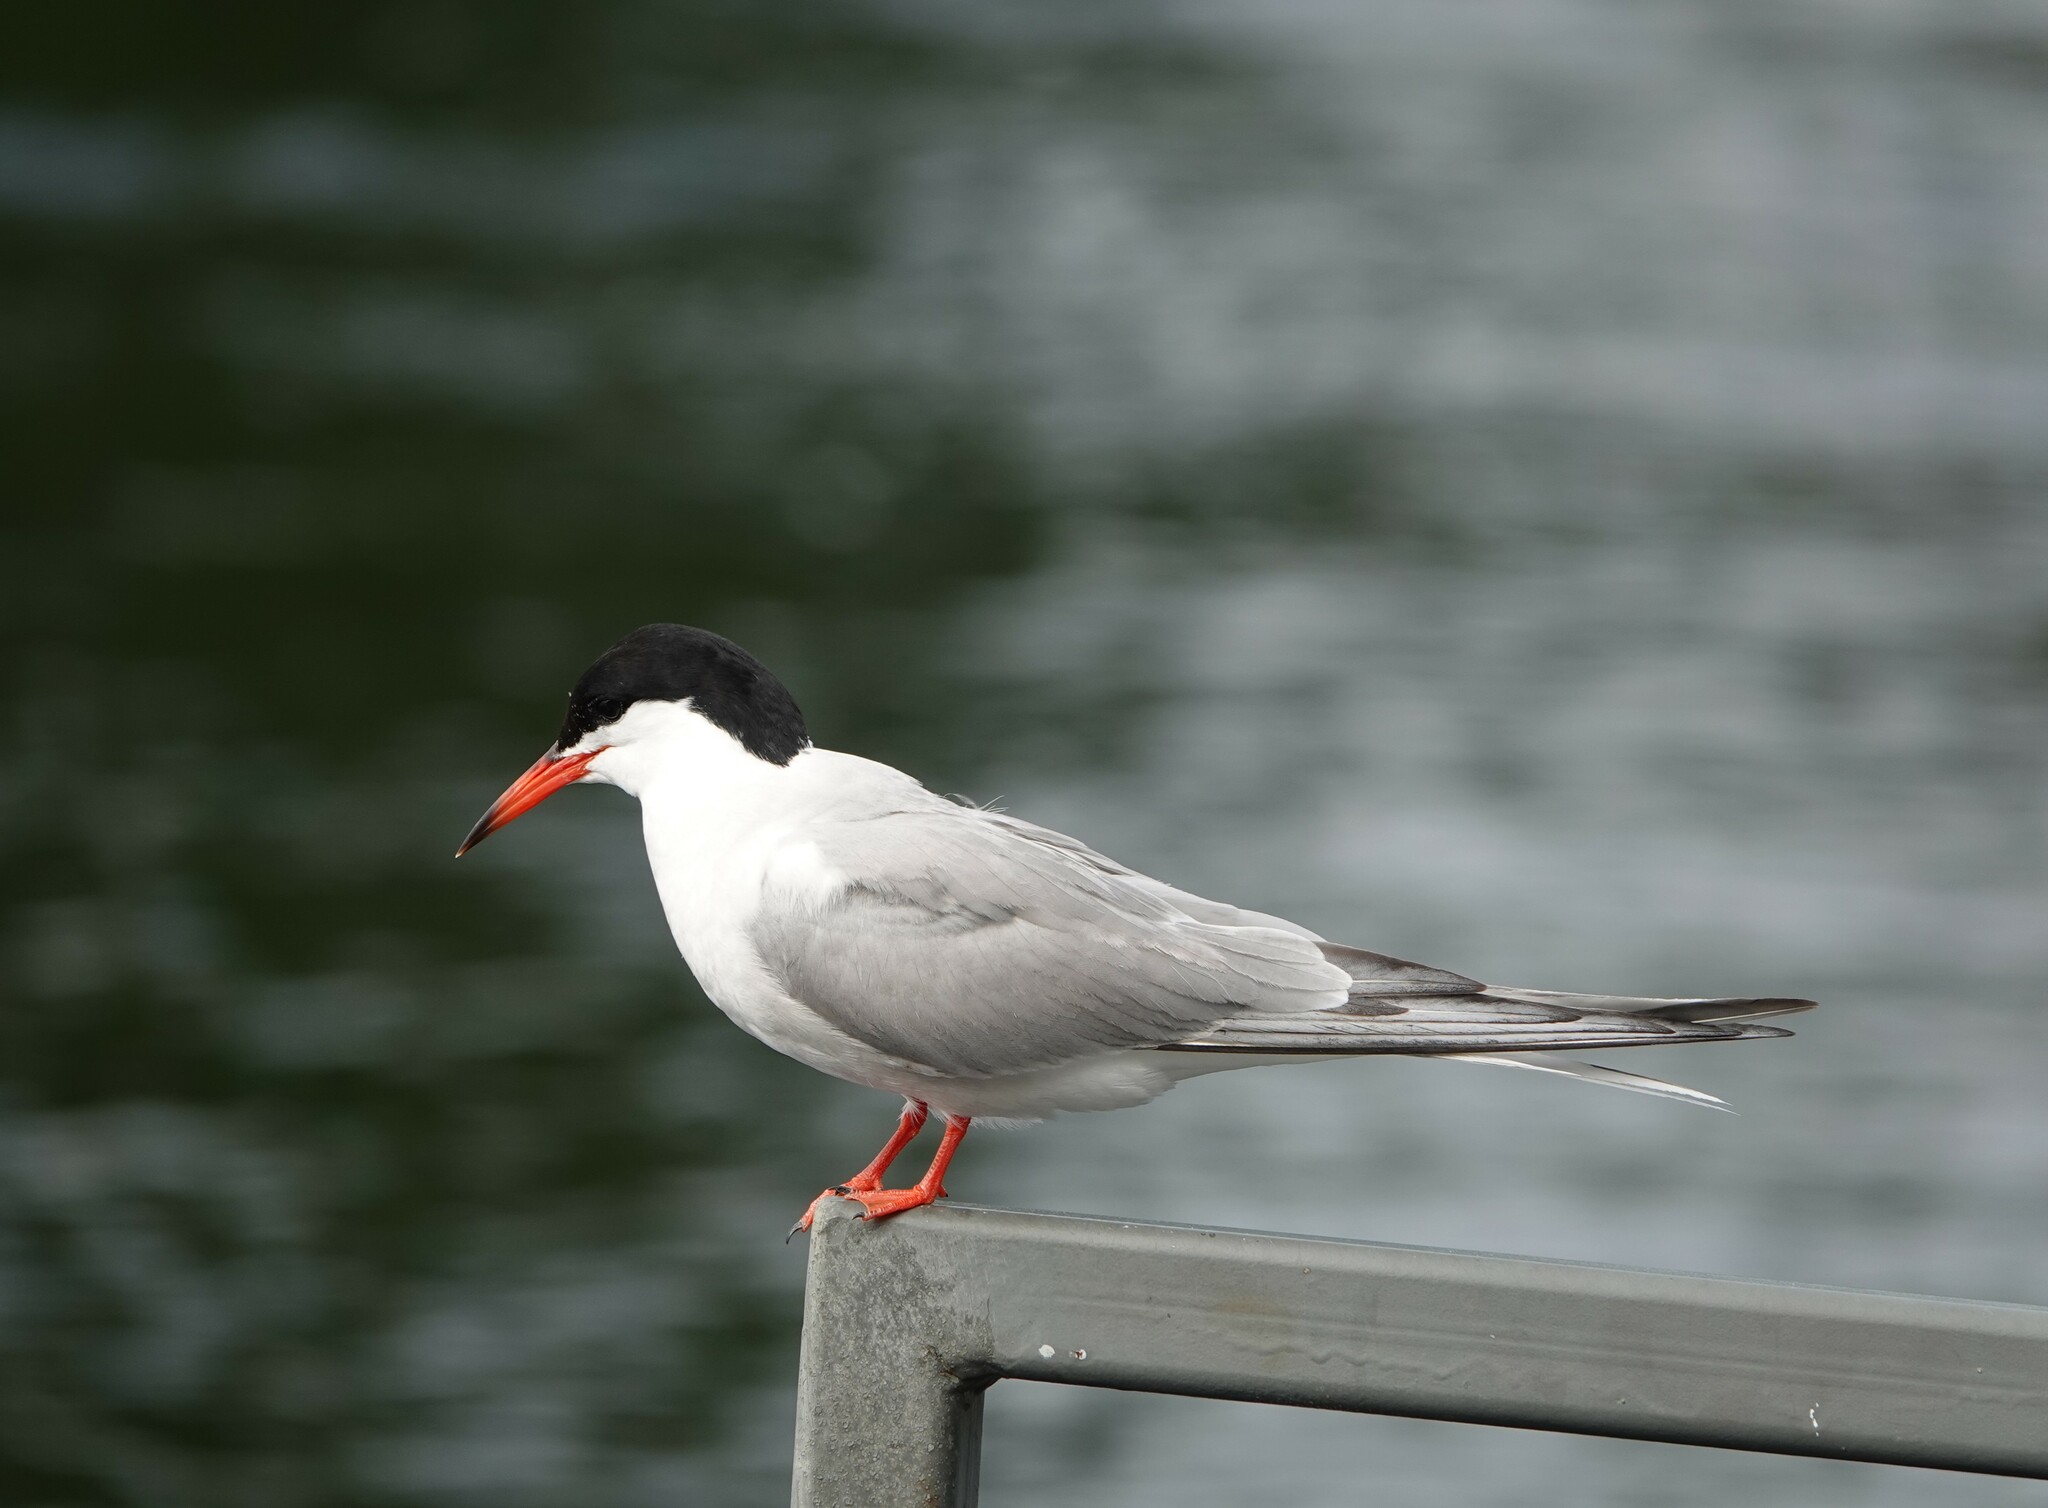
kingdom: Animalia
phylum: Chordata
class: Aves
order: Charadriiformes
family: Laridae
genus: Sterna
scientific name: Sterna hirundo
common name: Common tern
